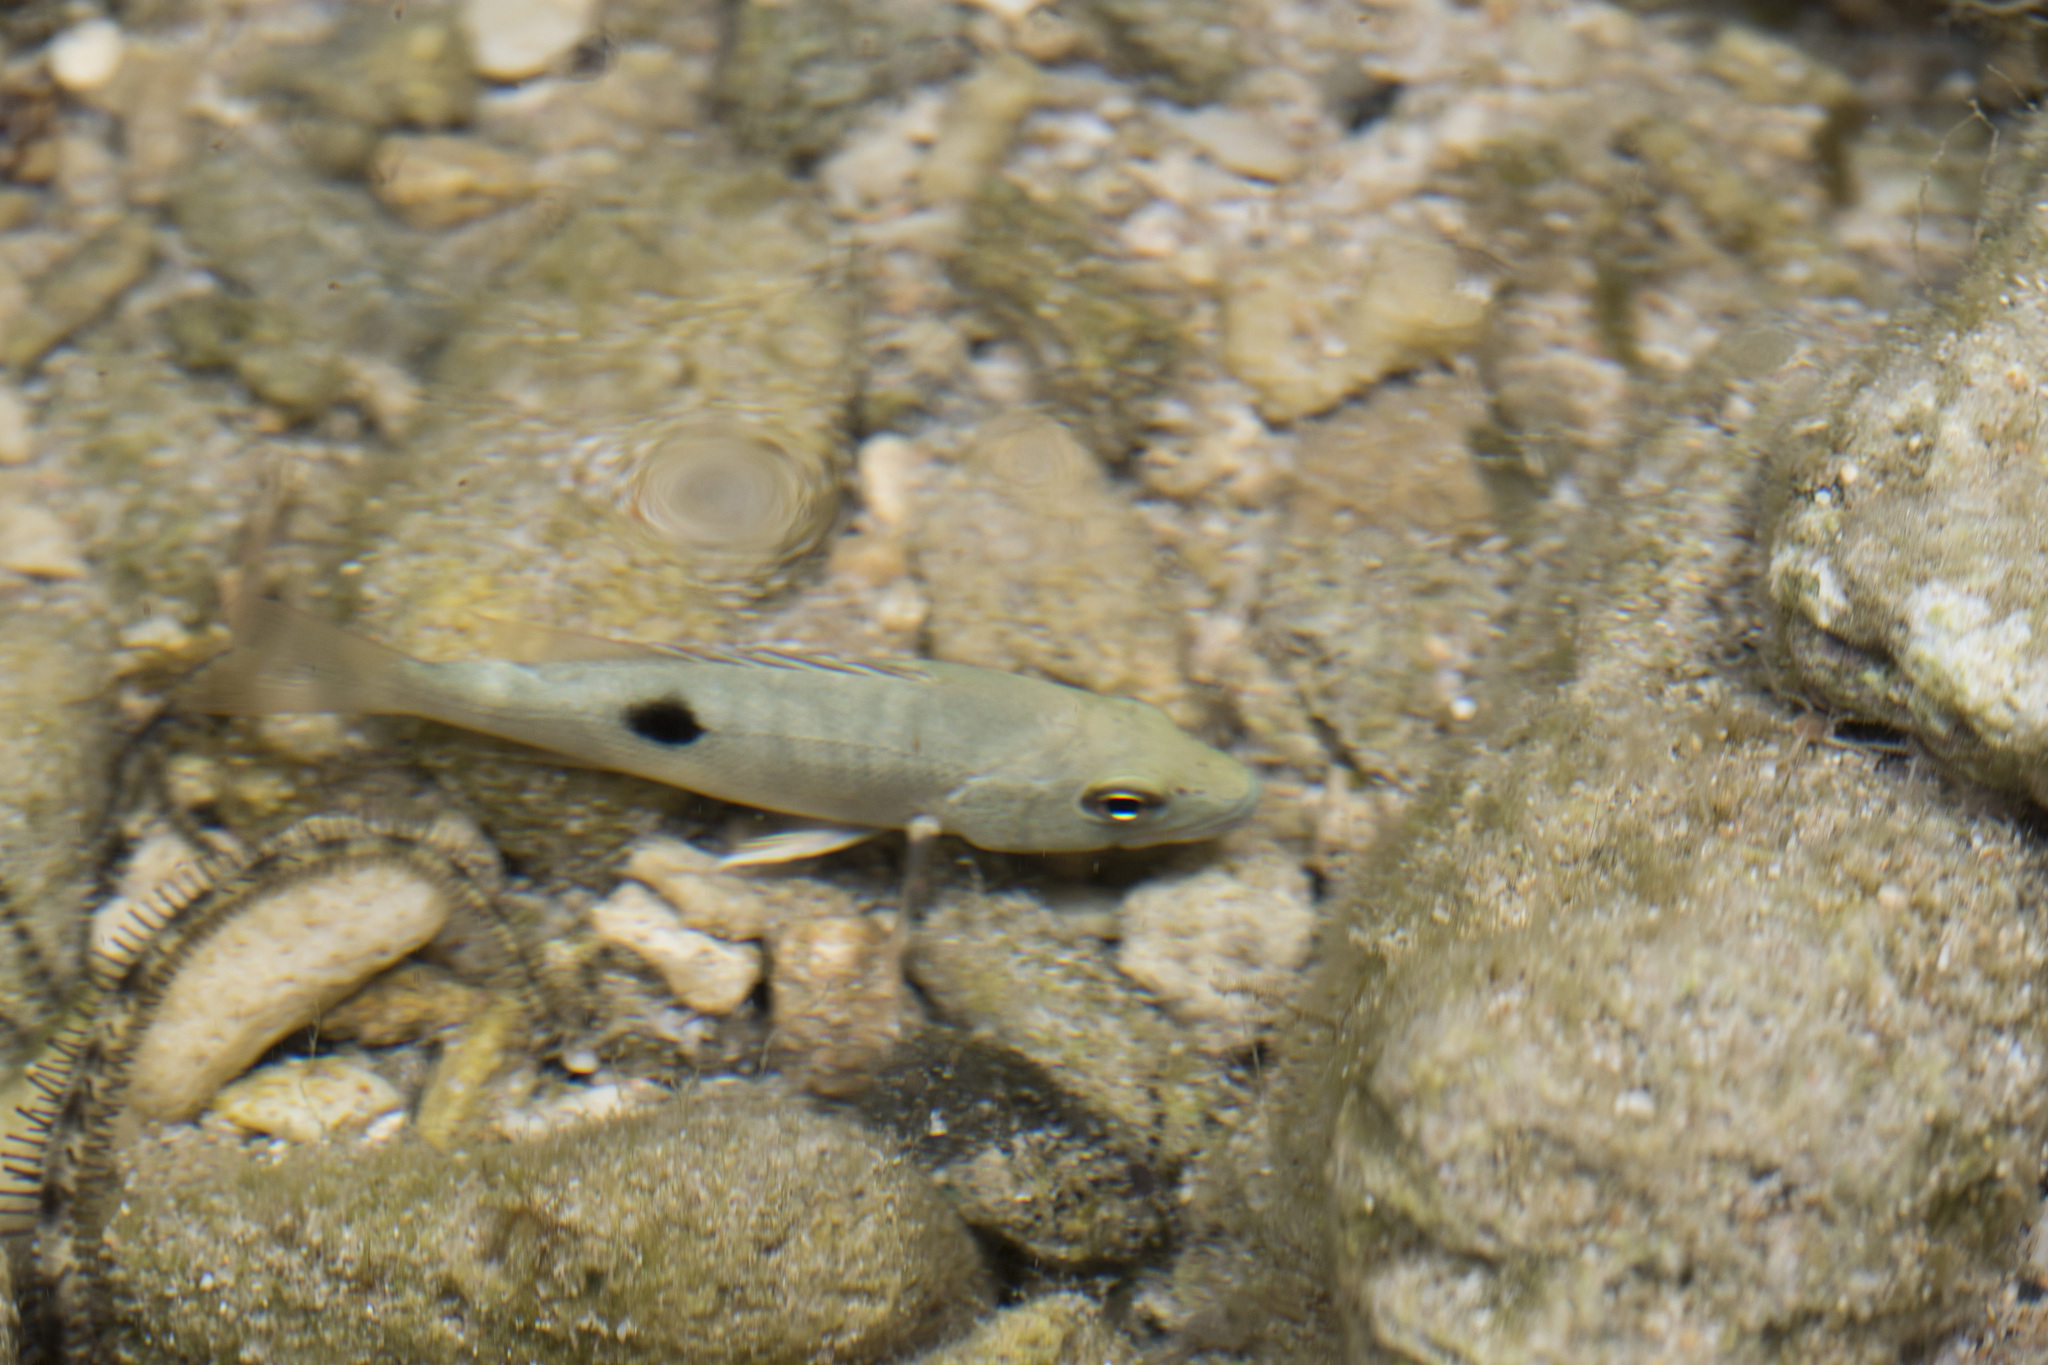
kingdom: Animalia
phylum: Chordata
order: Perciformes
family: Lutjanidae
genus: Lutjanus
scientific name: Lutjanus monostigma
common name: Onespot snapper
